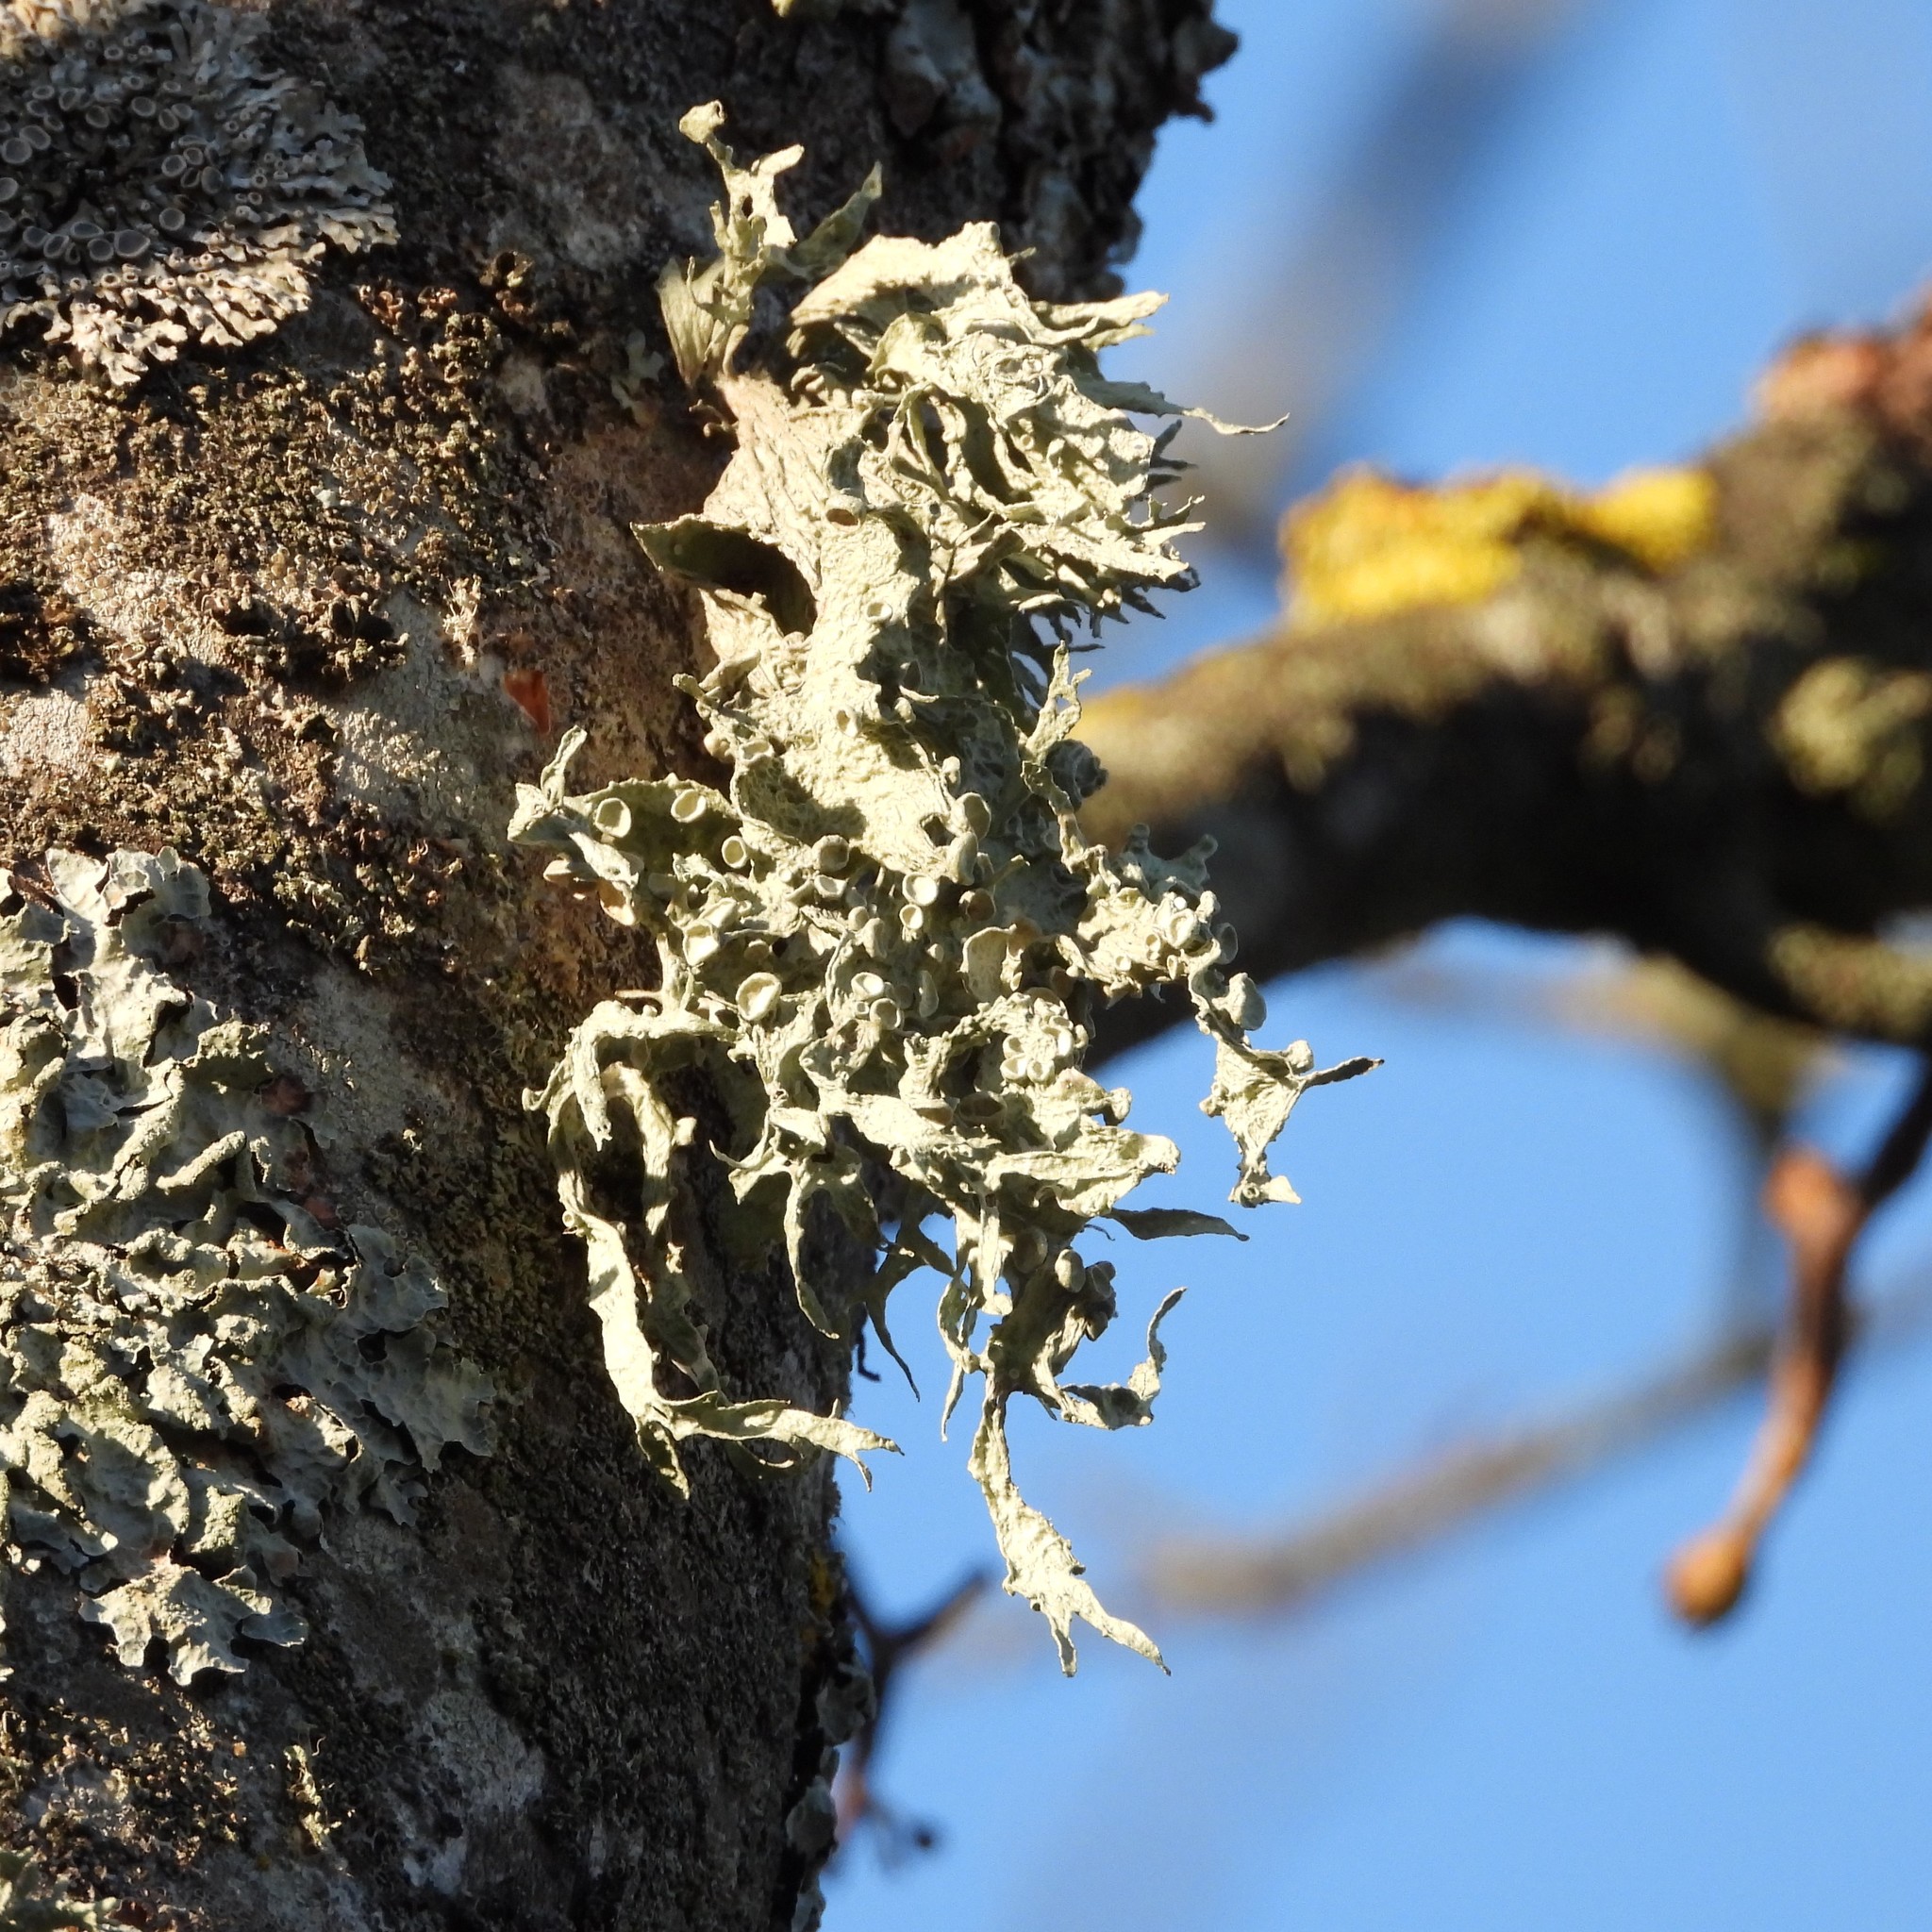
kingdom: Fungi
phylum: Ascomycota
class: Lecanoromycetes
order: Lecanorales
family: Ramalinaceae
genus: Ramalina
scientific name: Ramalina fraxinea
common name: Cartilage lichen
